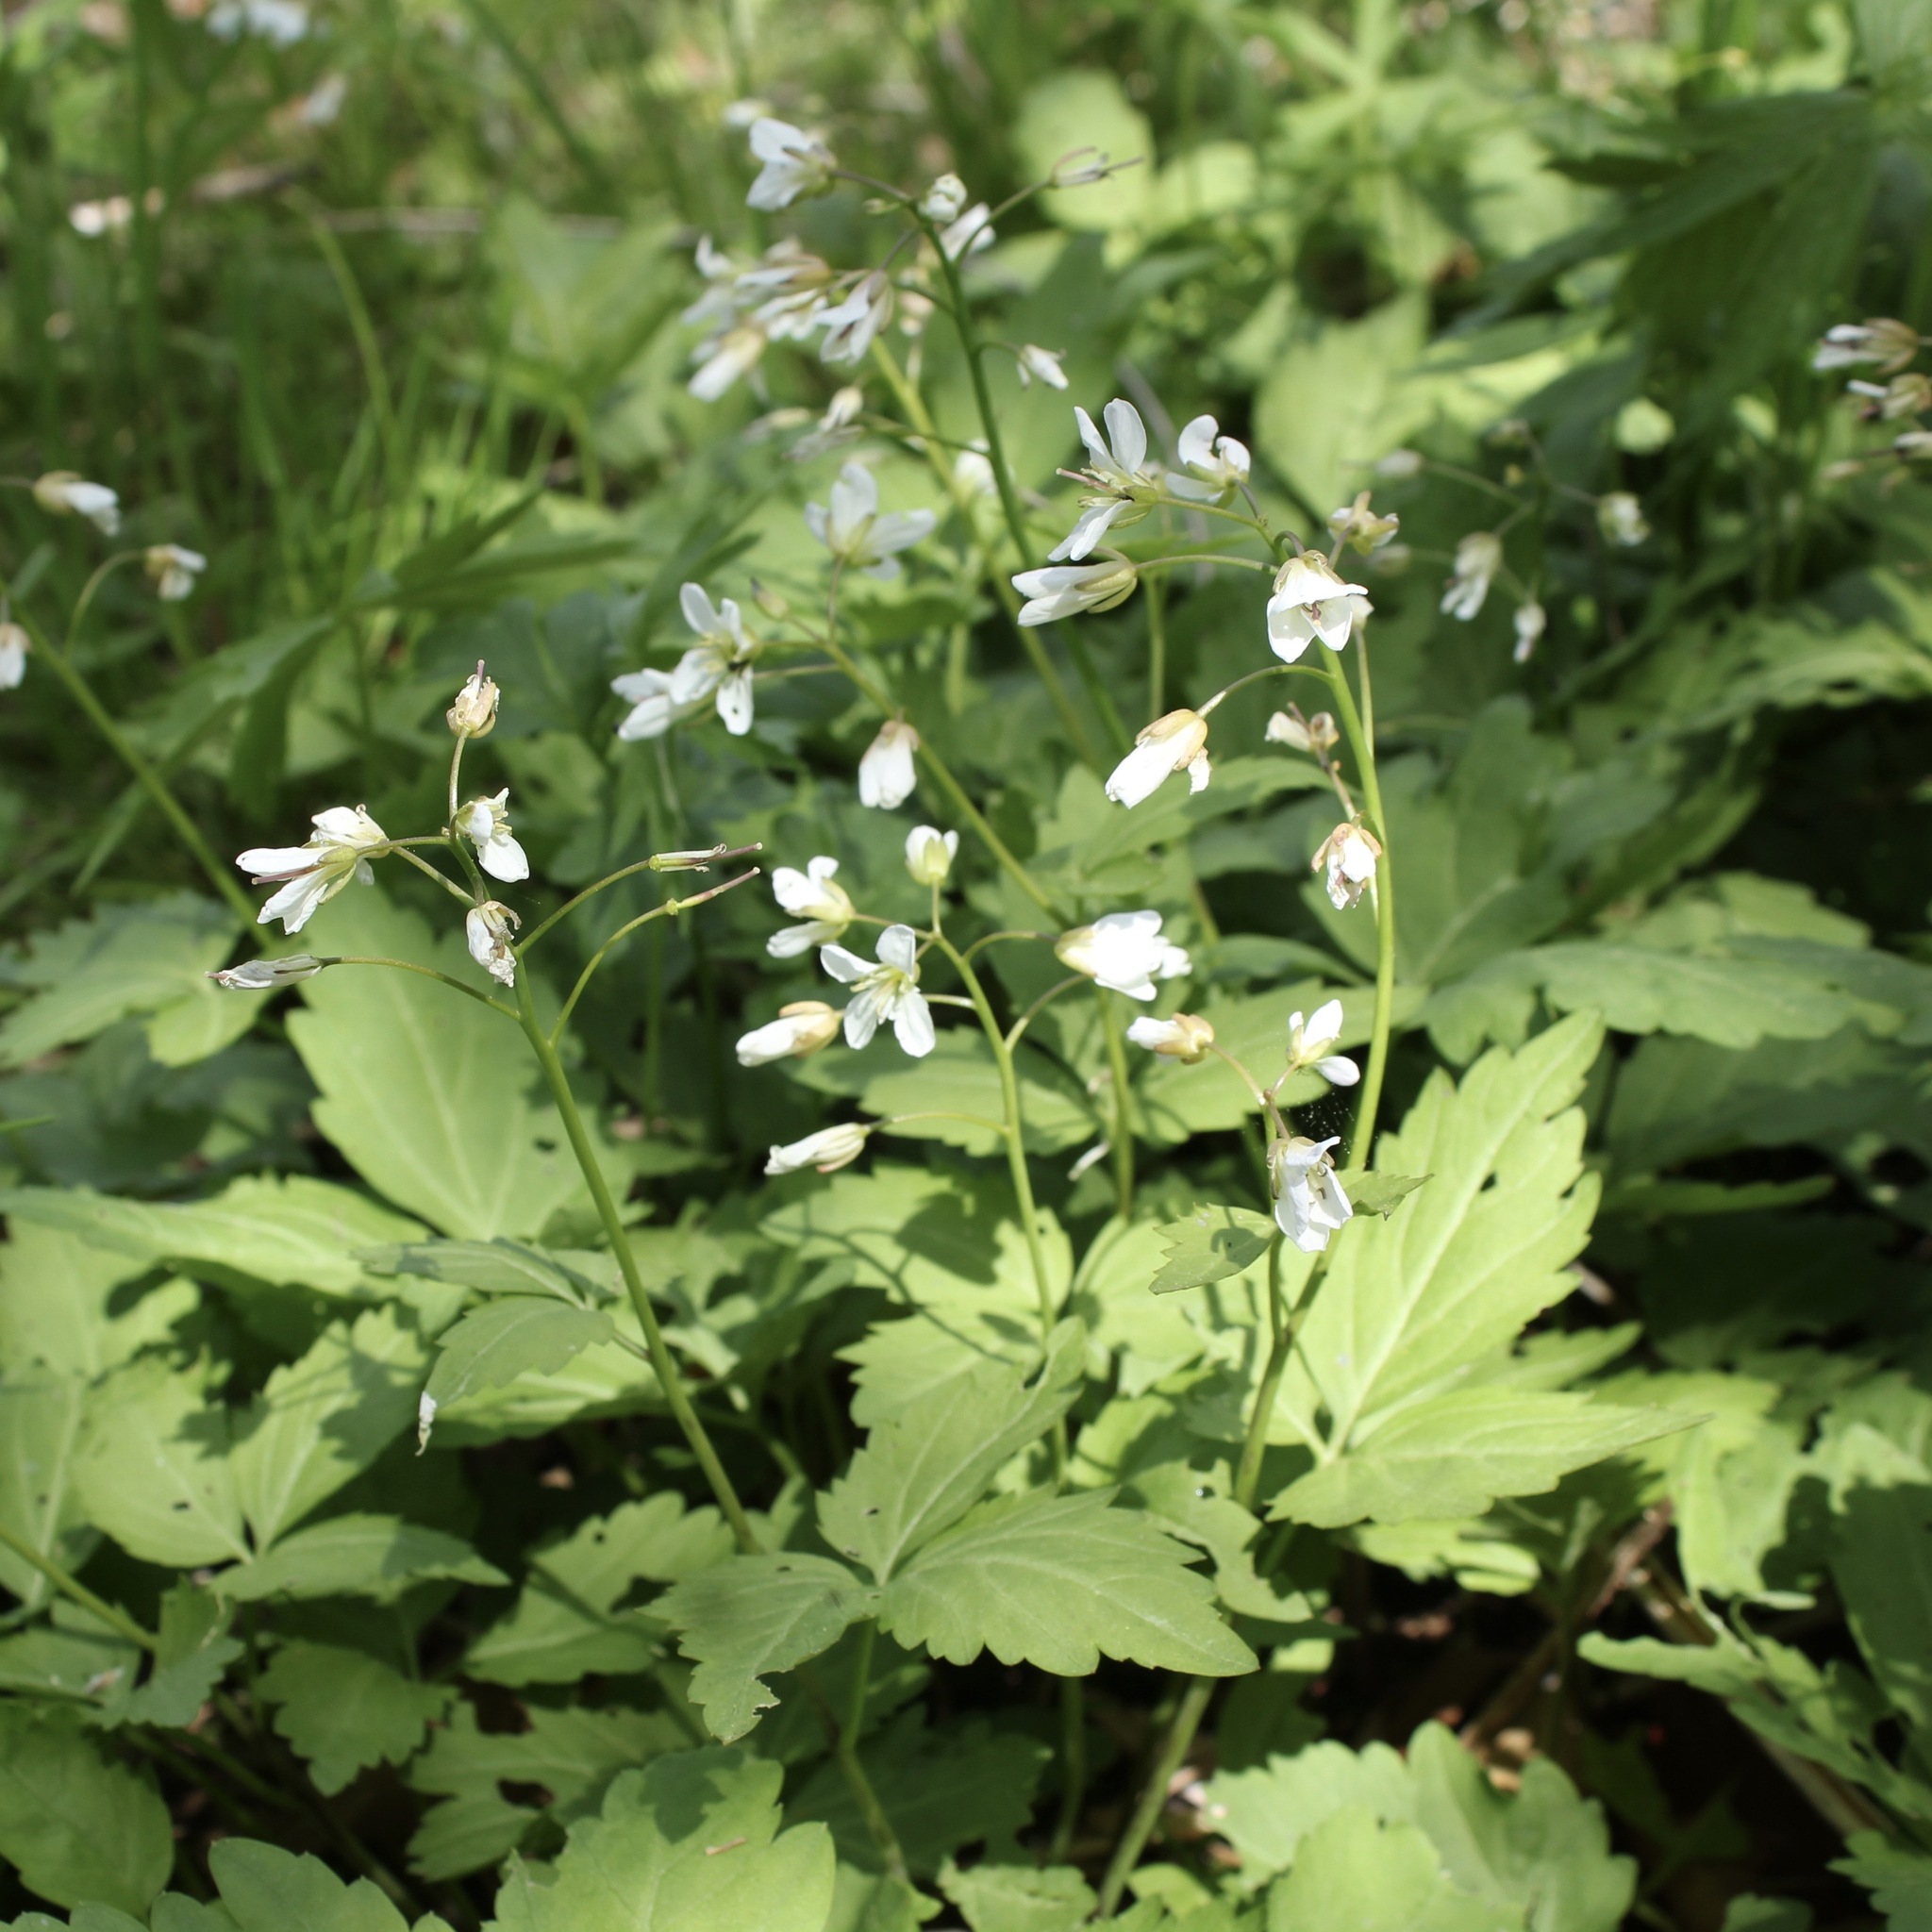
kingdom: Plantae
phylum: Tracheophyta
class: Magnoliopsida
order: Brassicales
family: Brassicaceae
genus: Cardamine
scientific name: Cardamine diphylla
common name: Broad-leaved toothwort
